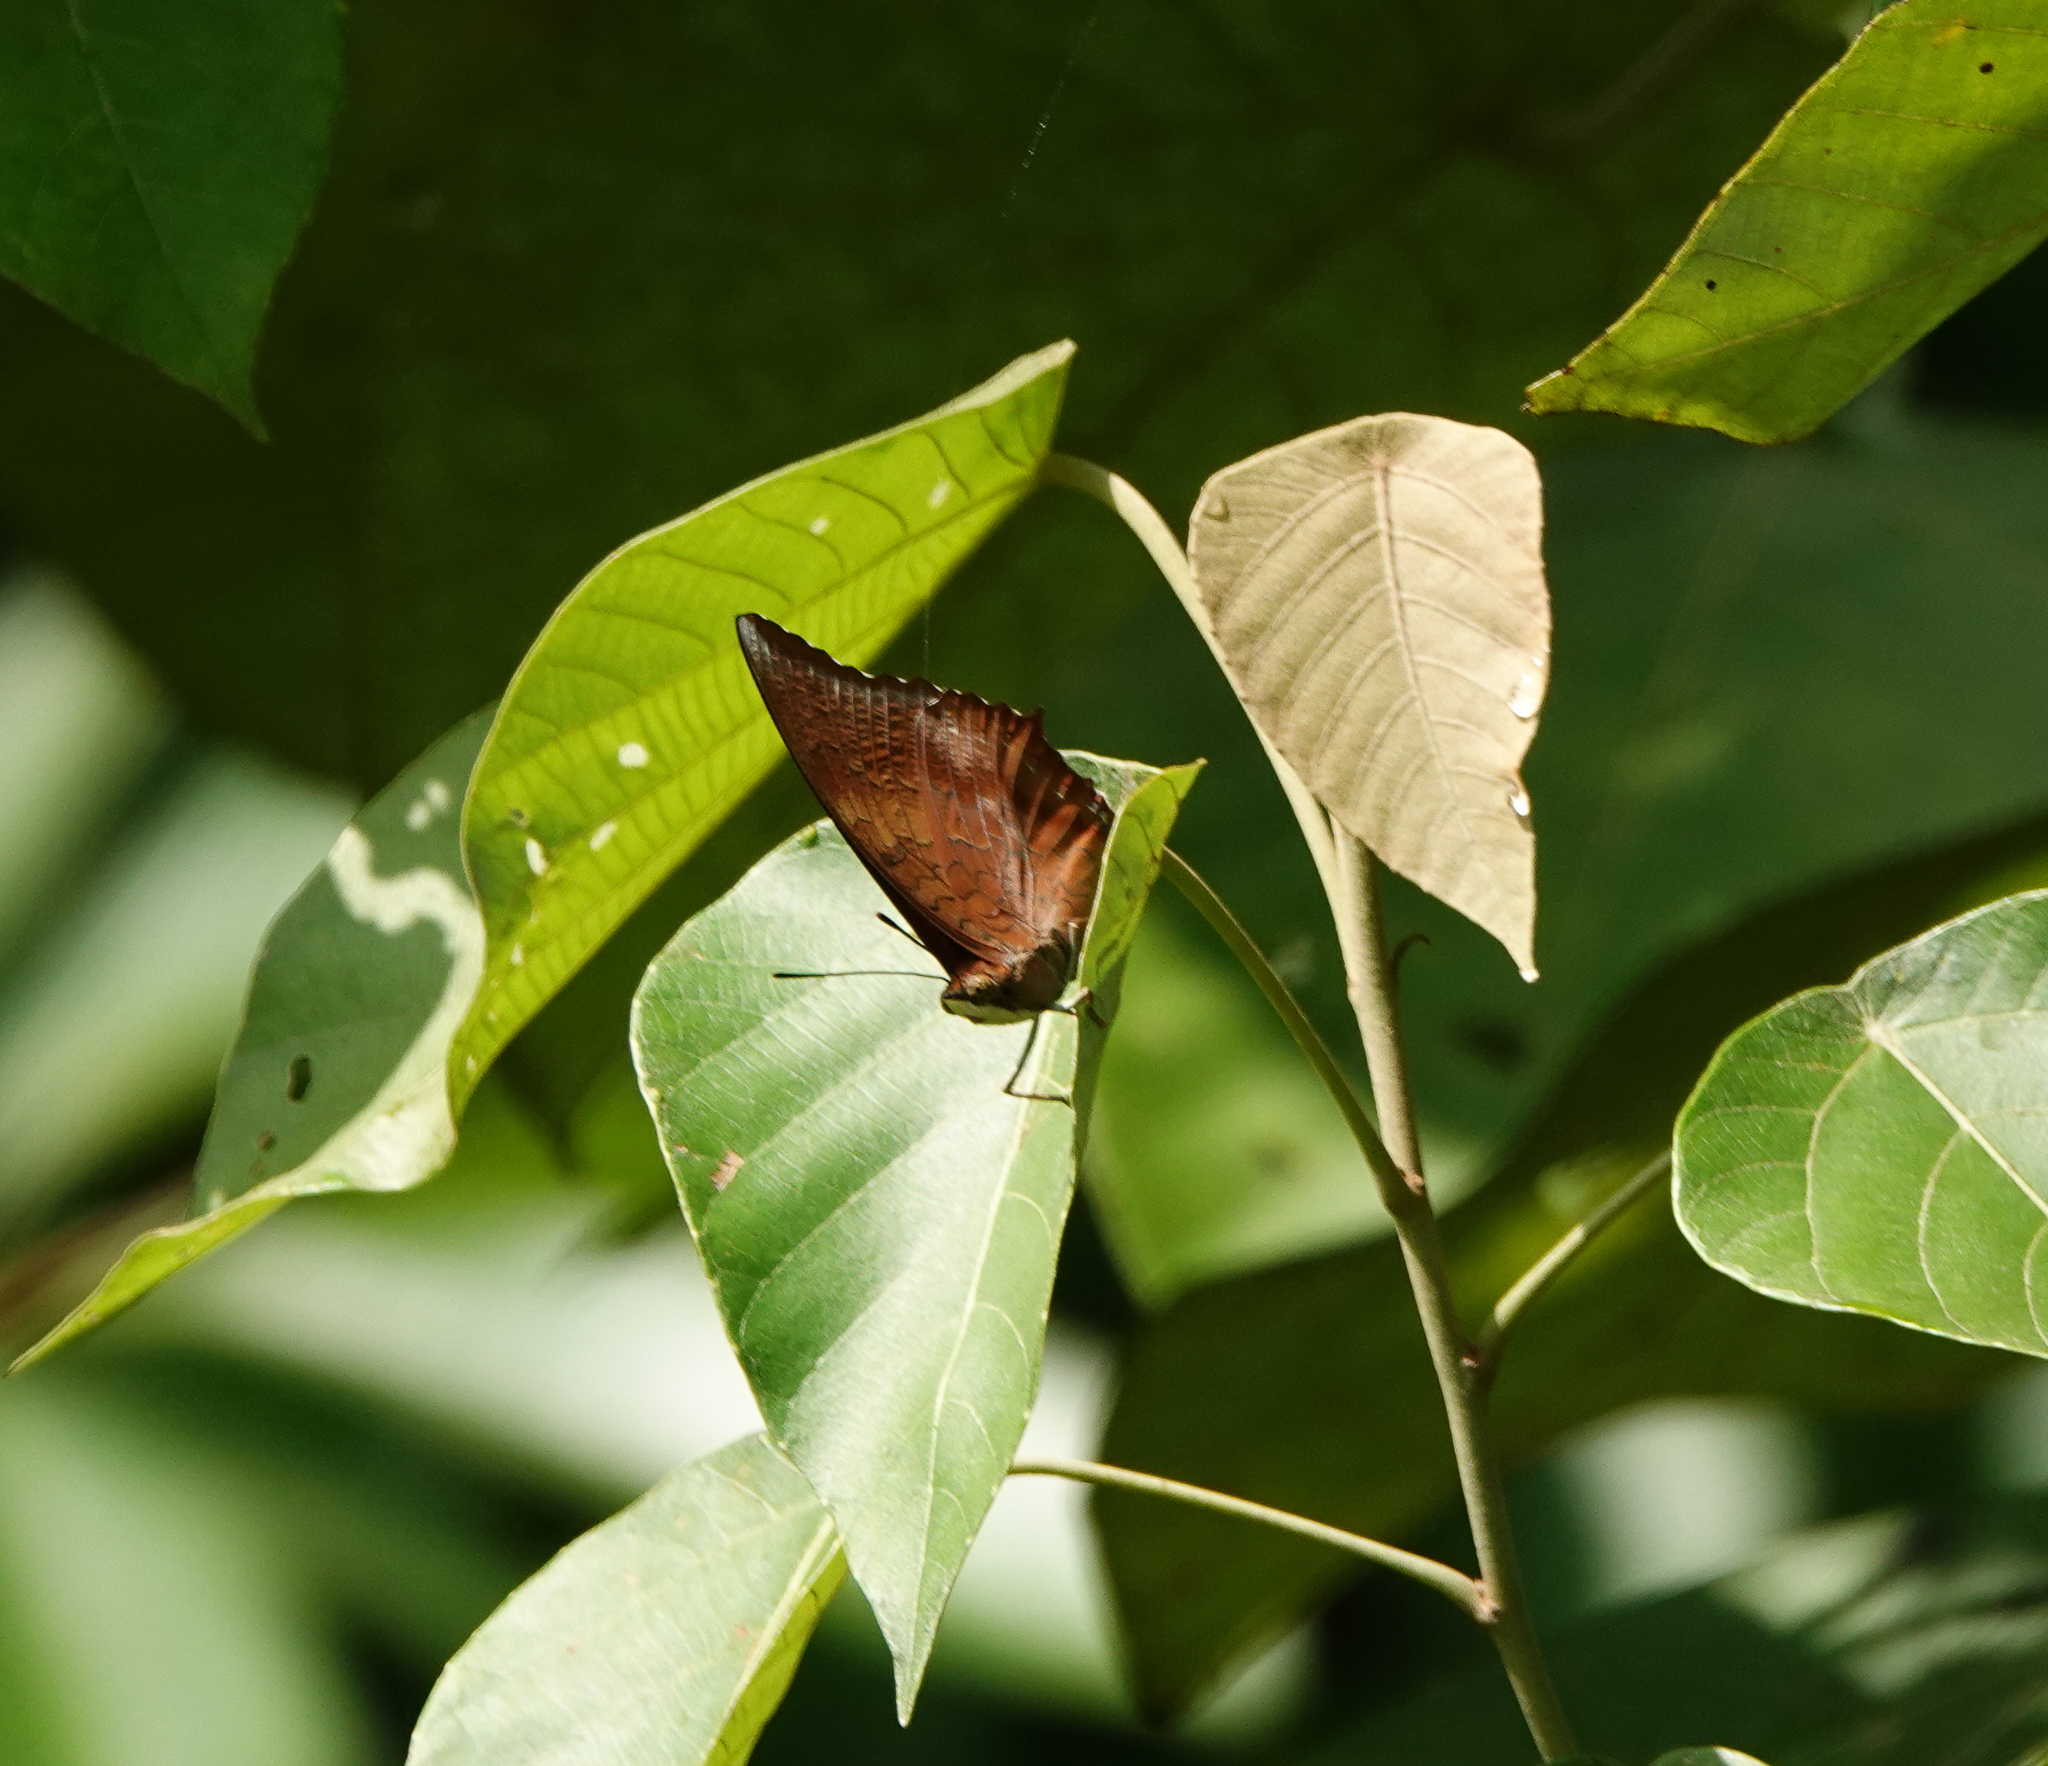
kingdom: Animalia
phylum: Arthropoda
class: Insecta
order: Lepidoptera
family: Nymphalidae
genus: Charaxes
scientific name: Charaxes bernardus
